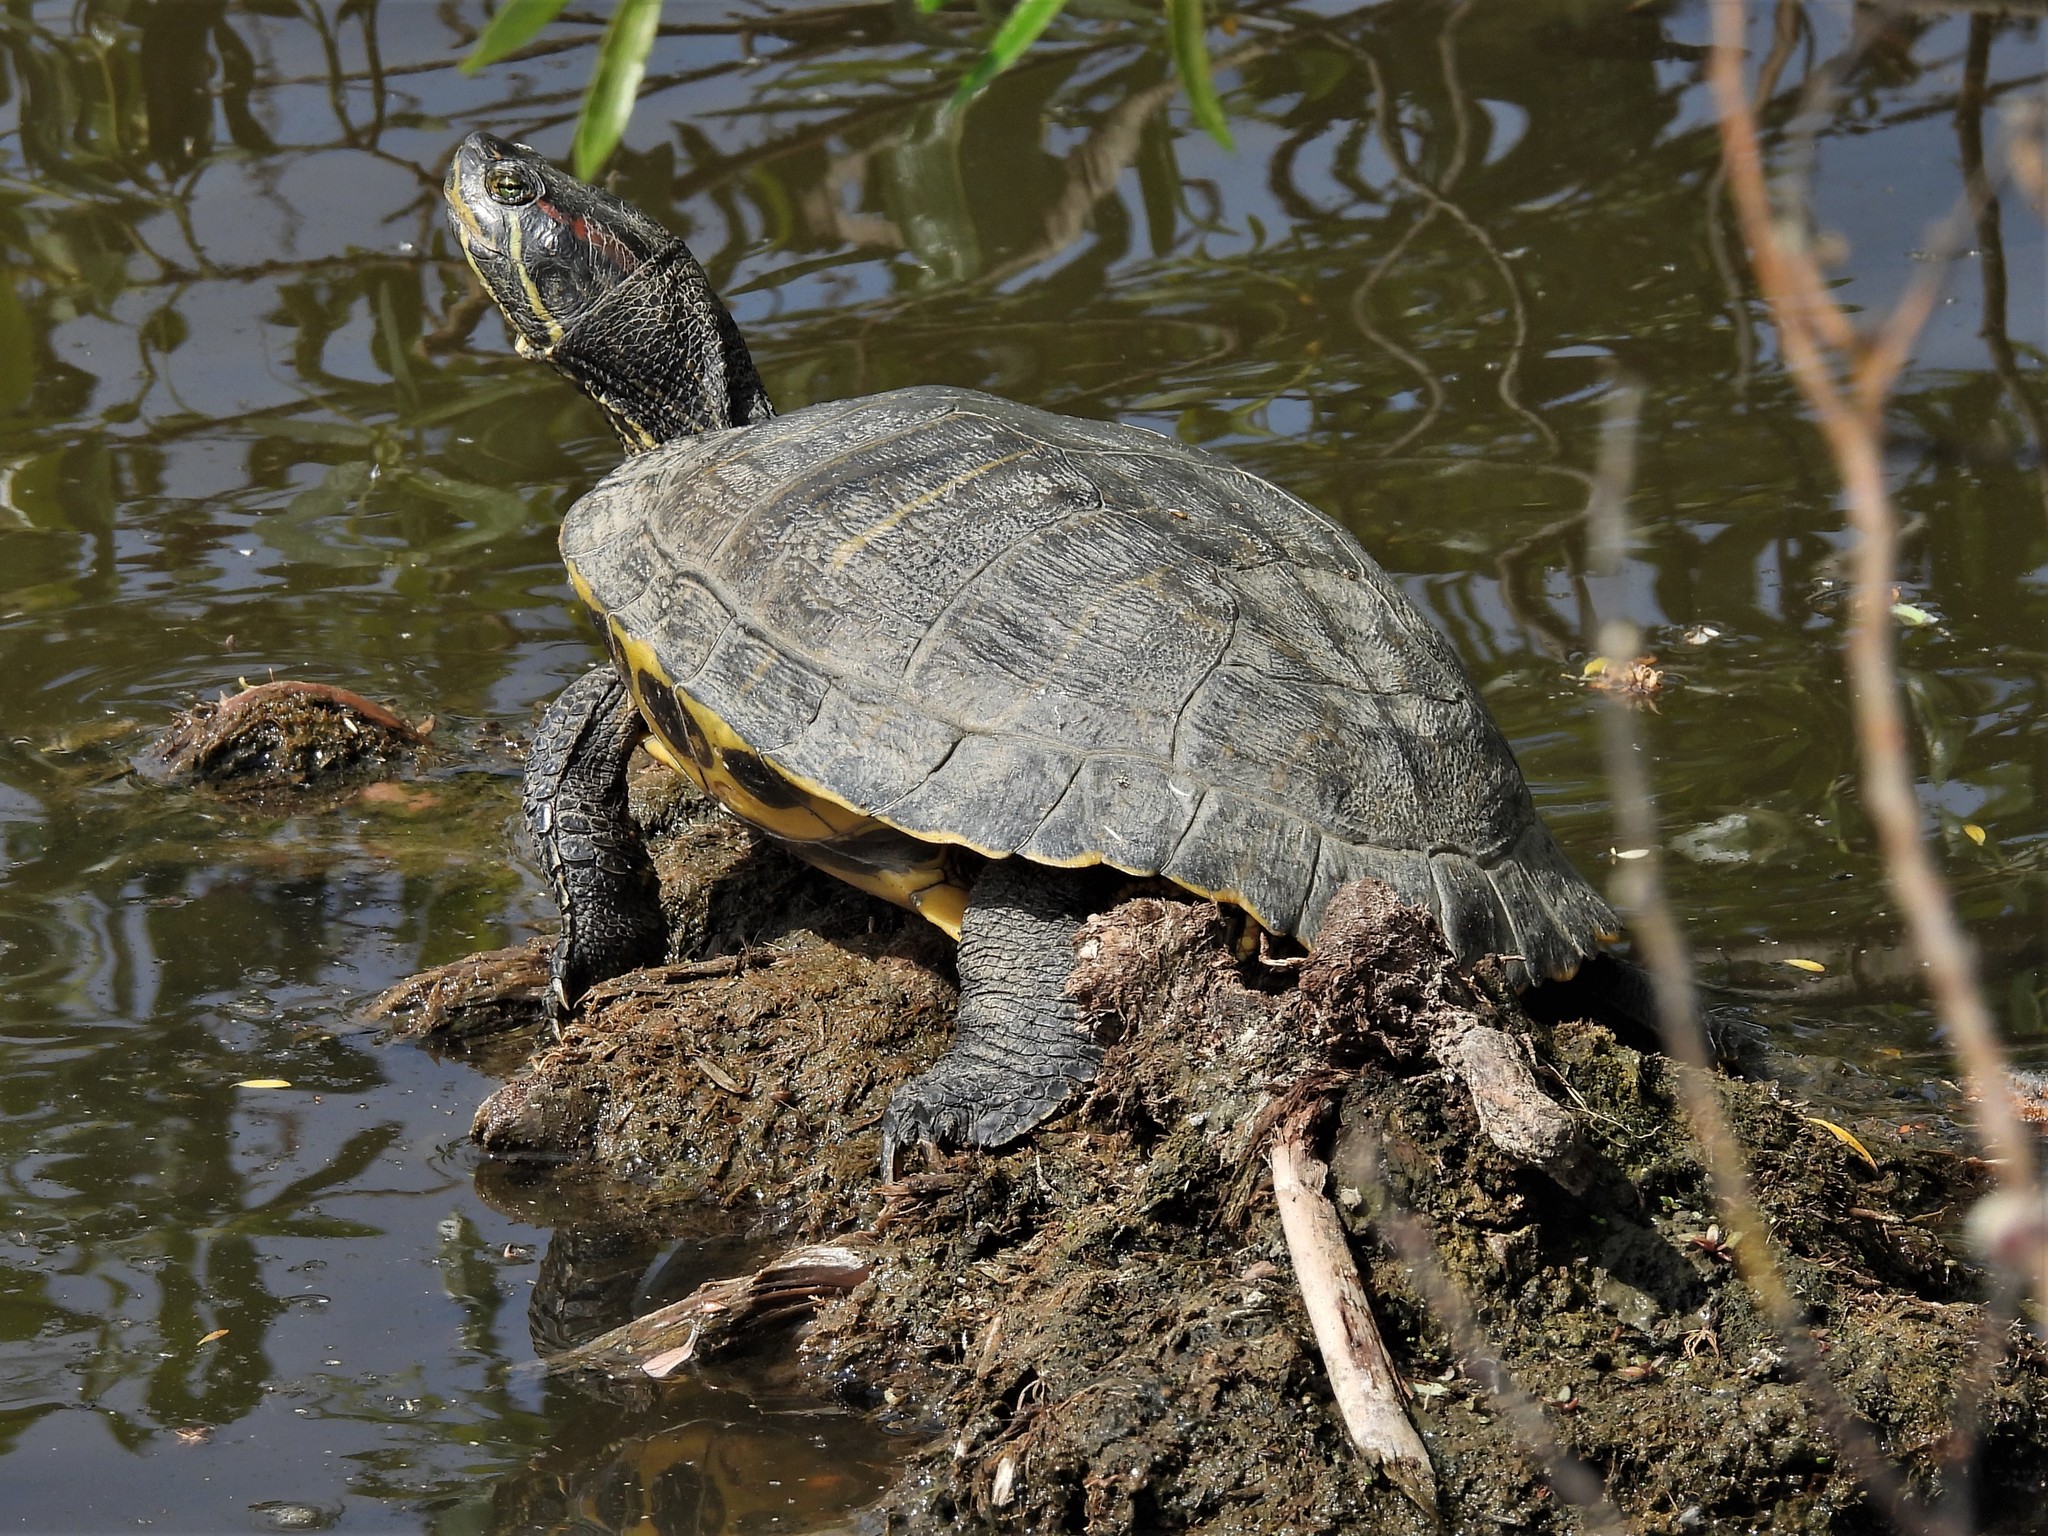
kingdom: Animalia
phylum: Chordata
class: Testudines
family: Emydidae
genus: Trachemys
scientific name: Trachemys scripta
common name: Slider
